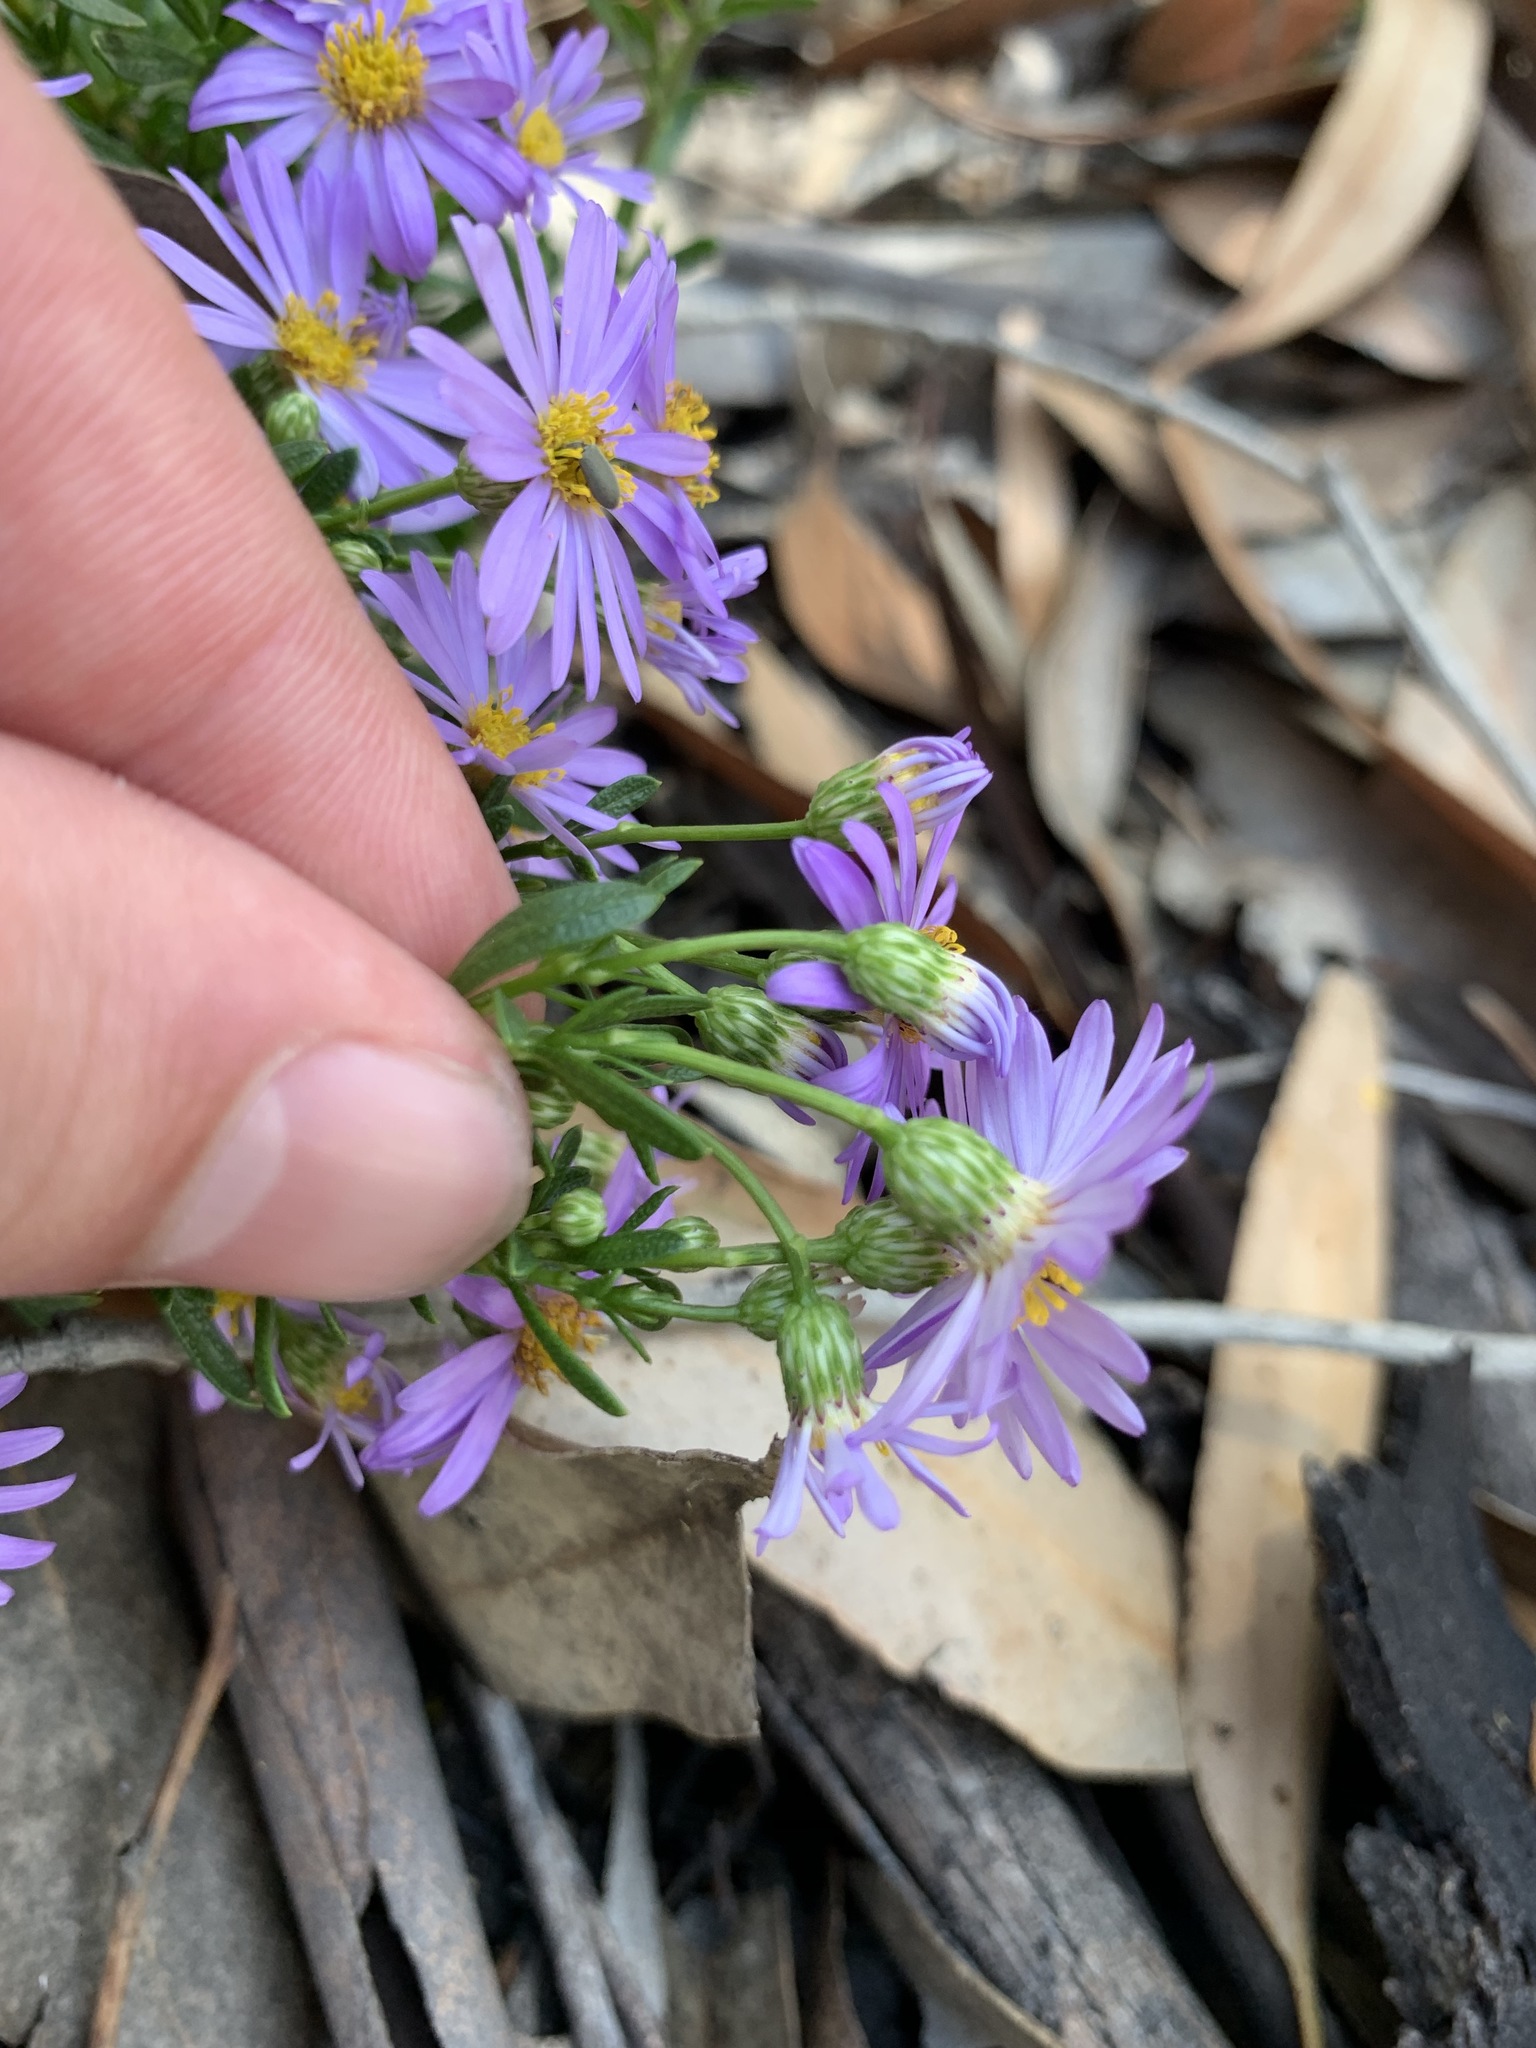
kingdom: Plantae
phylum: Tracheophyta
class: Magnoliopsida
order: Asterales
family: Asteraceae
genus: Felicia
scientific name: Felicia fruticosa
